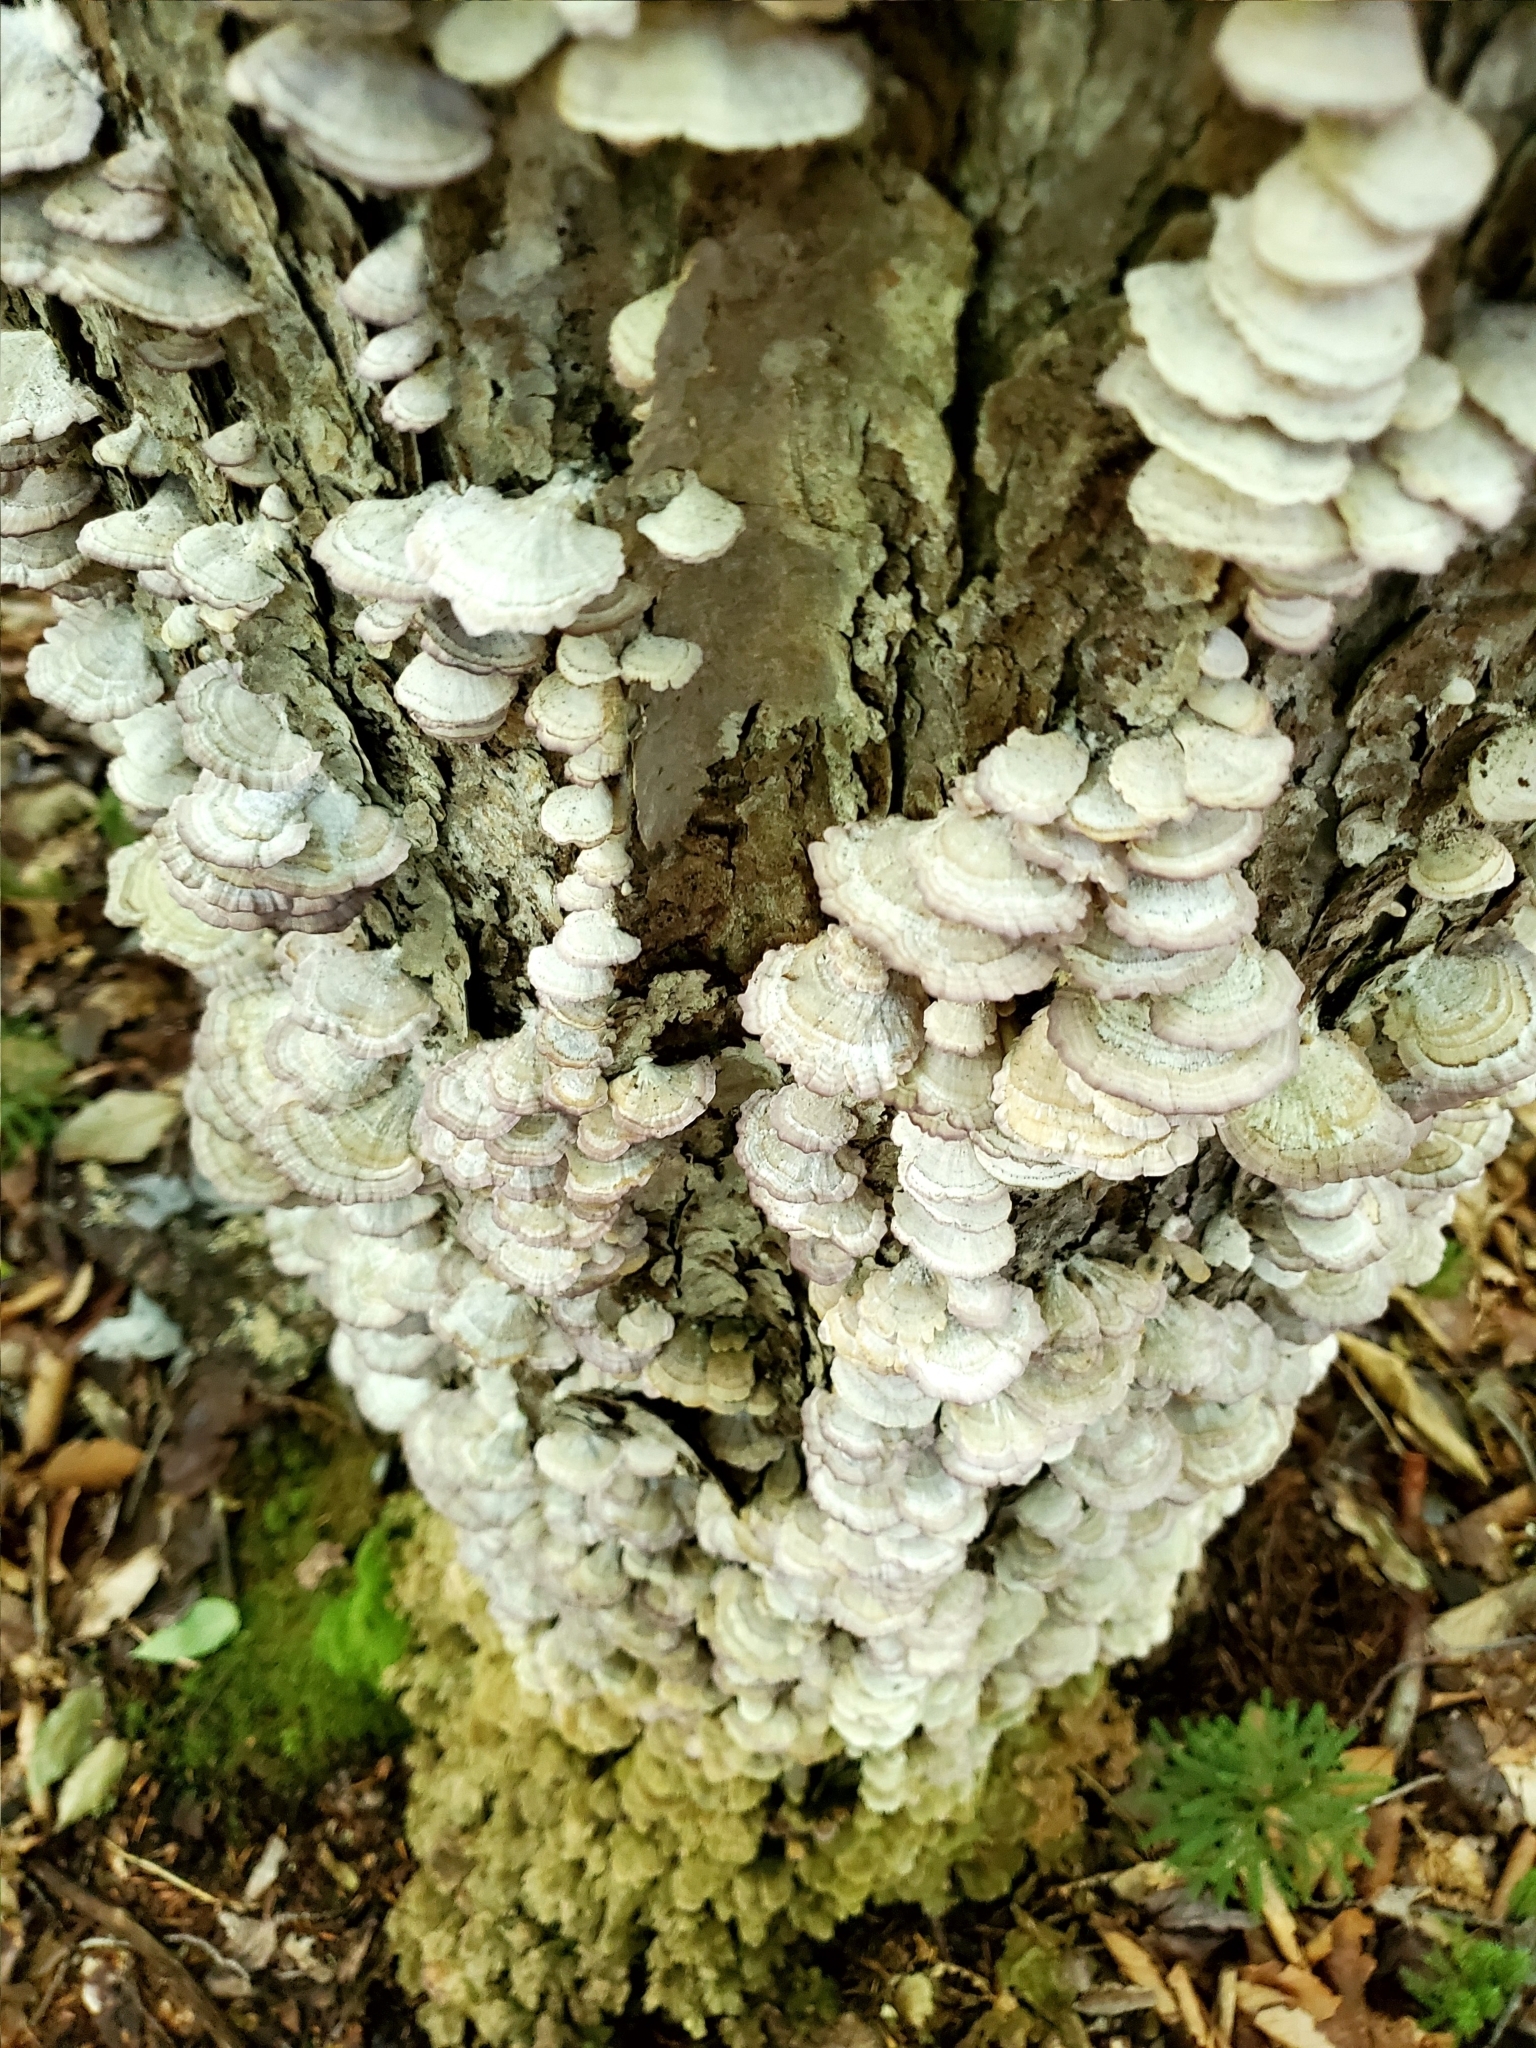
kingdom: Fungi
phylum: Basidiomycota
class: Agaricomycetes
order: Hymenochaetales
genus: Trichaptum
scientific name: Trichaptum biforme
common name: Violet-toothed polypore
